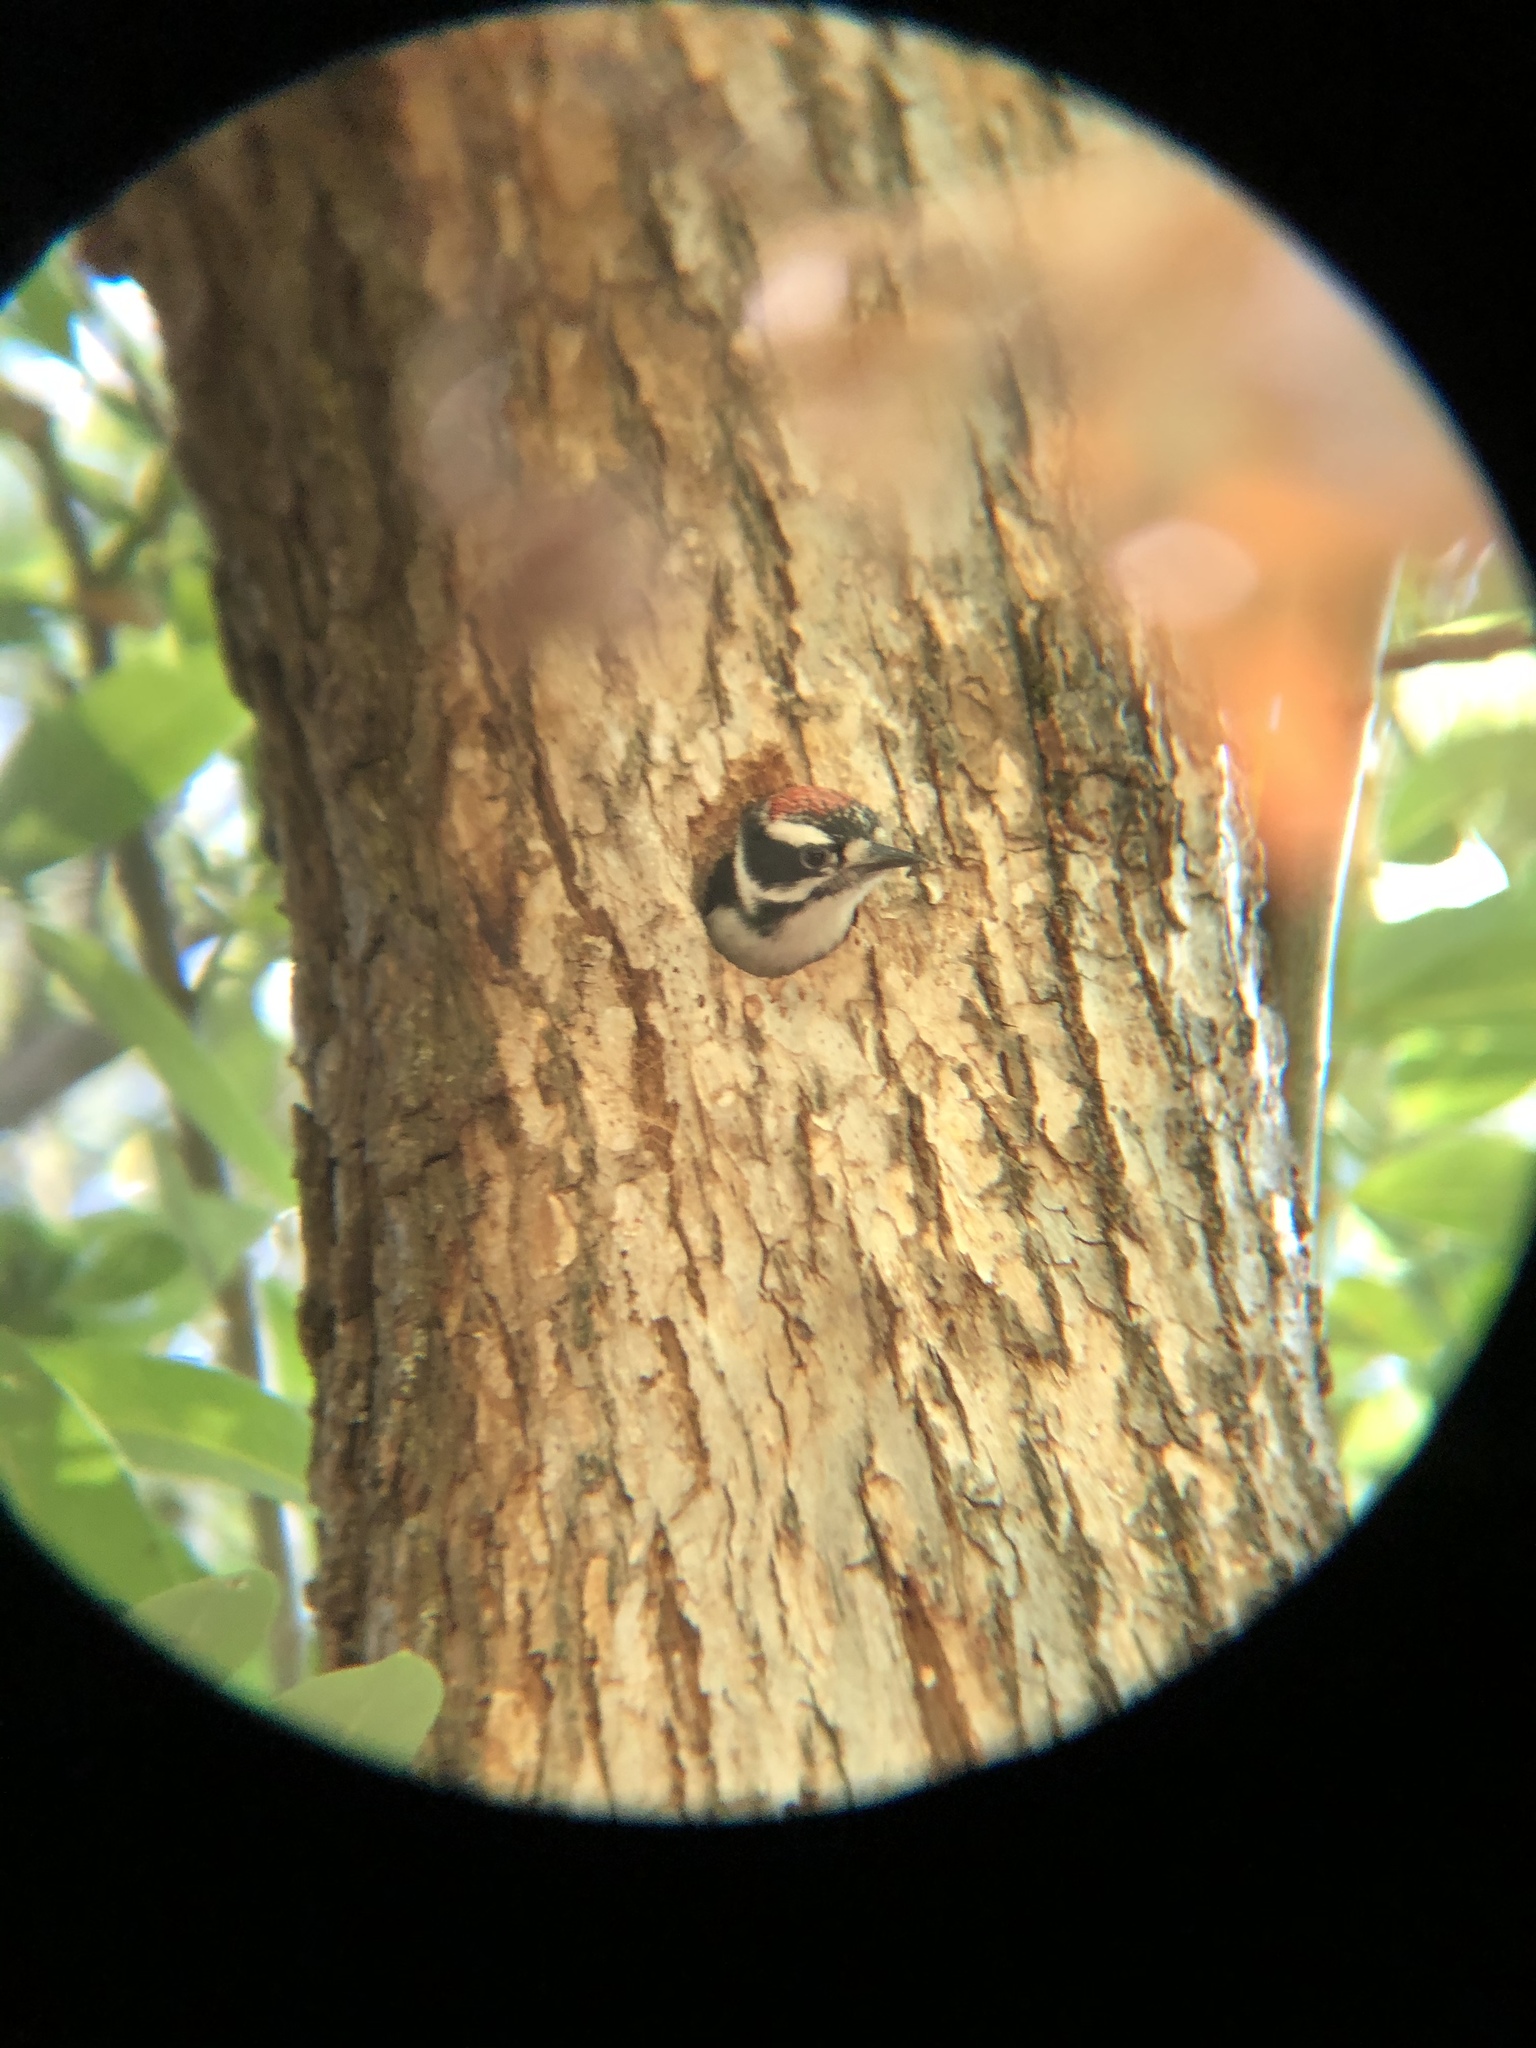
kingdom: Animalia
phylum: Chordata
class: Aves
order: Piciformes
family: Picidae
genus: Dryobates
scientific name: Dryobates pubescens
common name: Downy woodpecker
